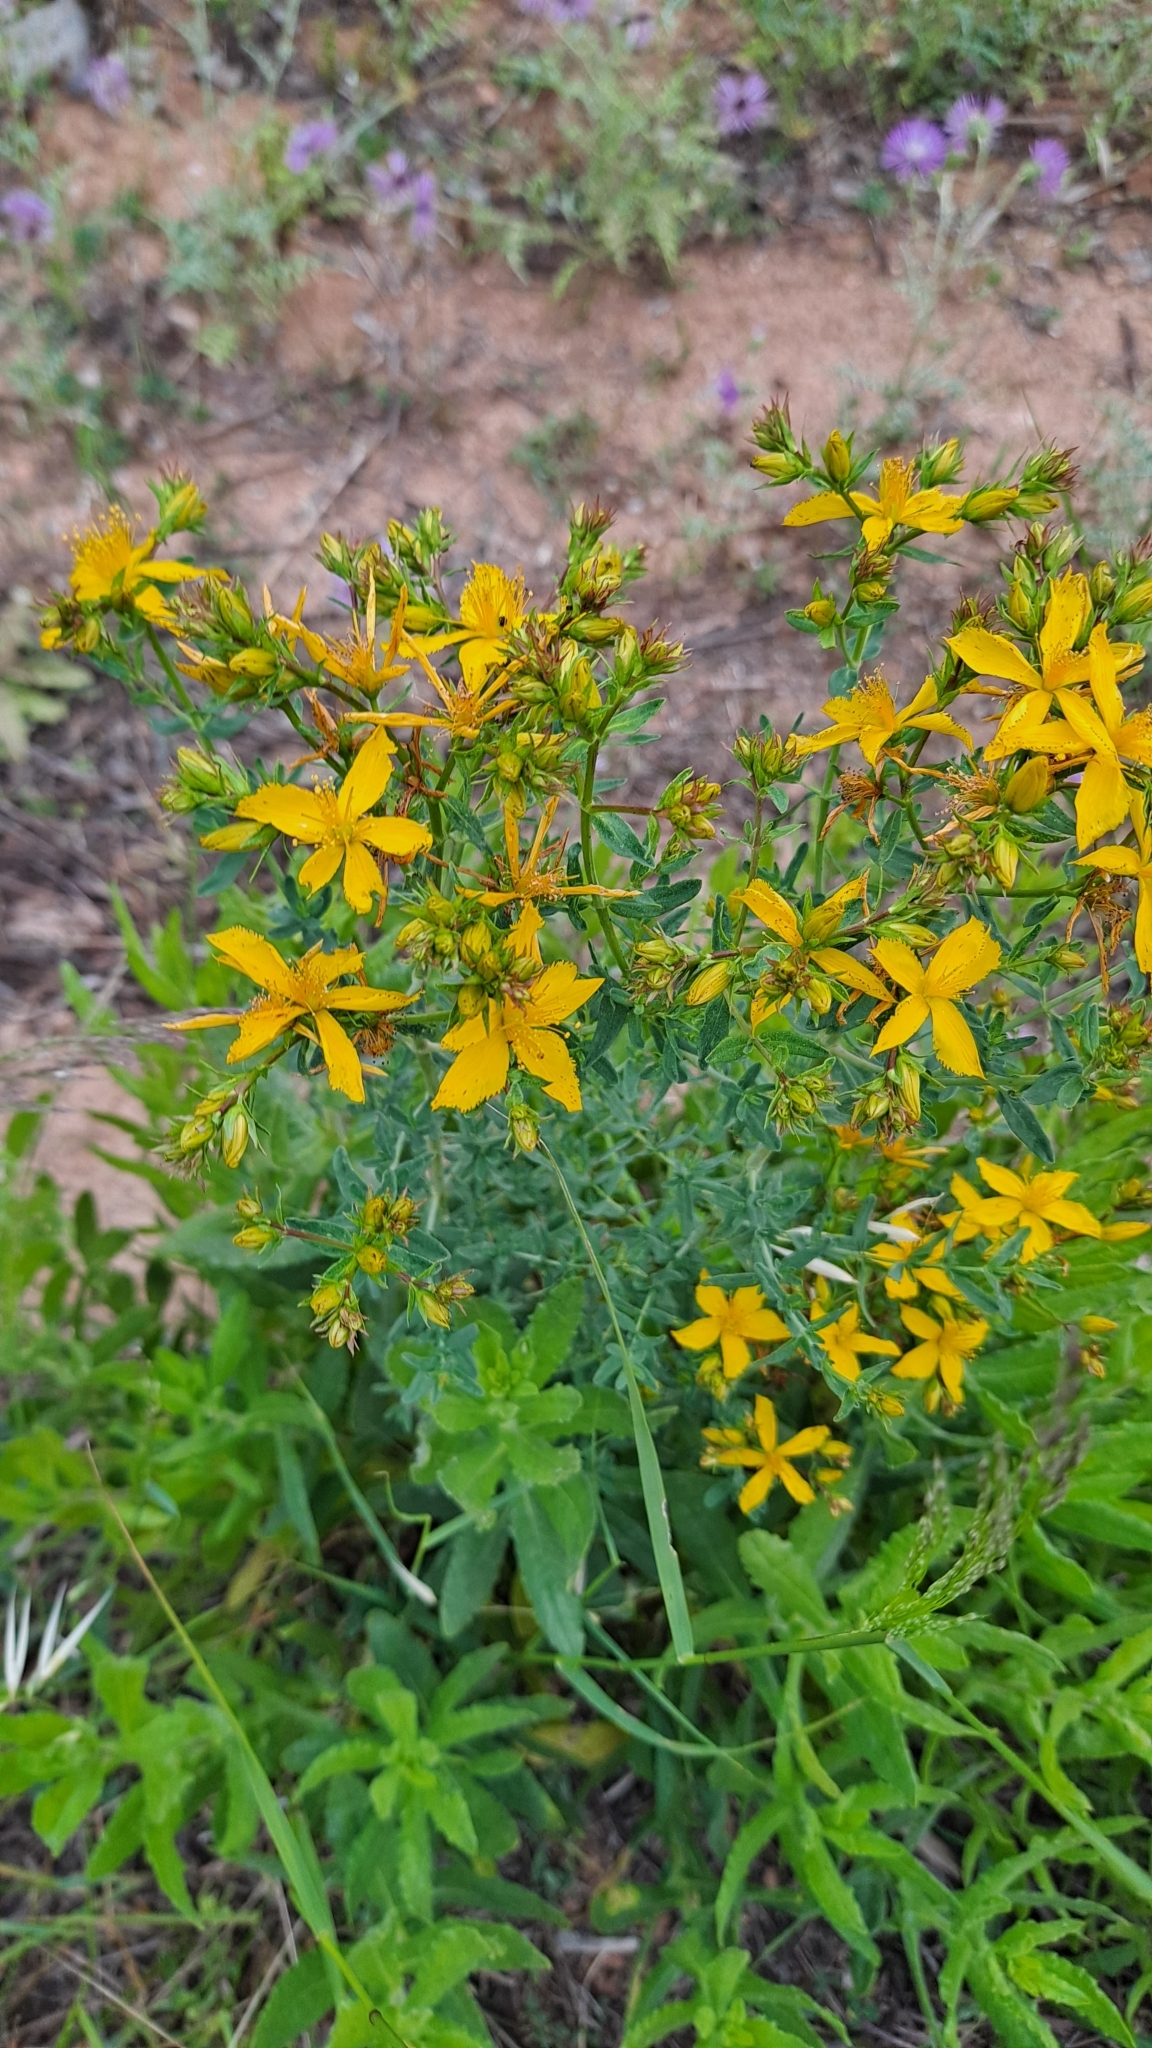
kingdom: Plantae
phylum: Tracheophyta
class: Magnoliopsida
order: Malpighiales
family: Hypericaceae
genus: Hypericum
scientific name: Hypericum perforatum
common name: Common st. johnswort
